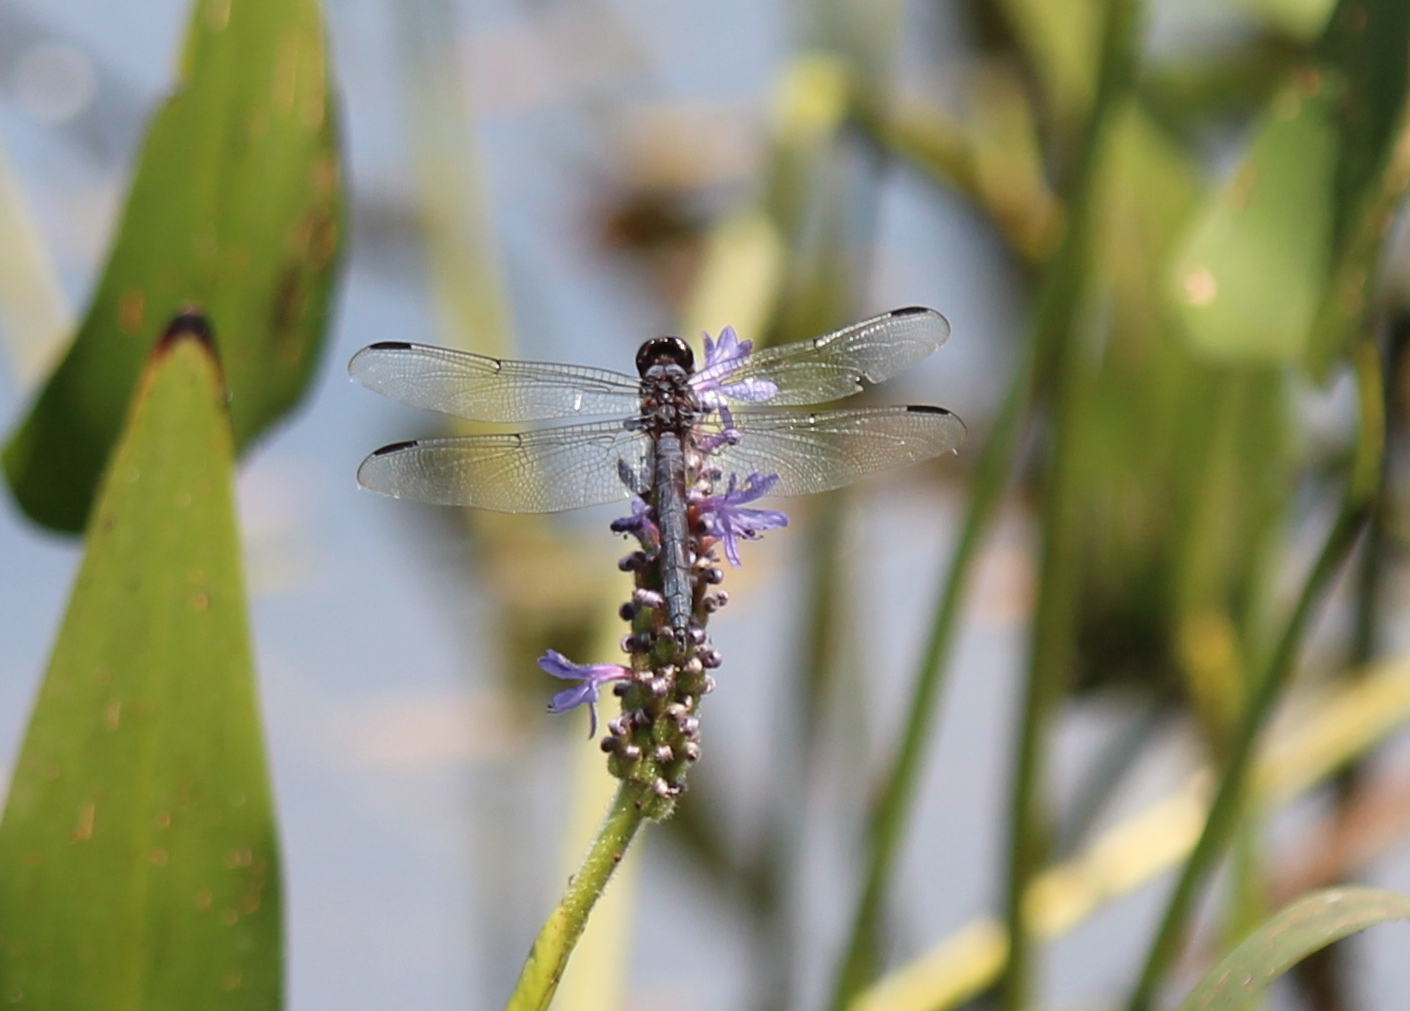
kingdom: Animalia
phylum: Arthropoda
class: Insecta
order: Odonata
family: Libellulidae
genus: Libellula
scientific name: Libellula incesta
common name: Slaty skimmer
